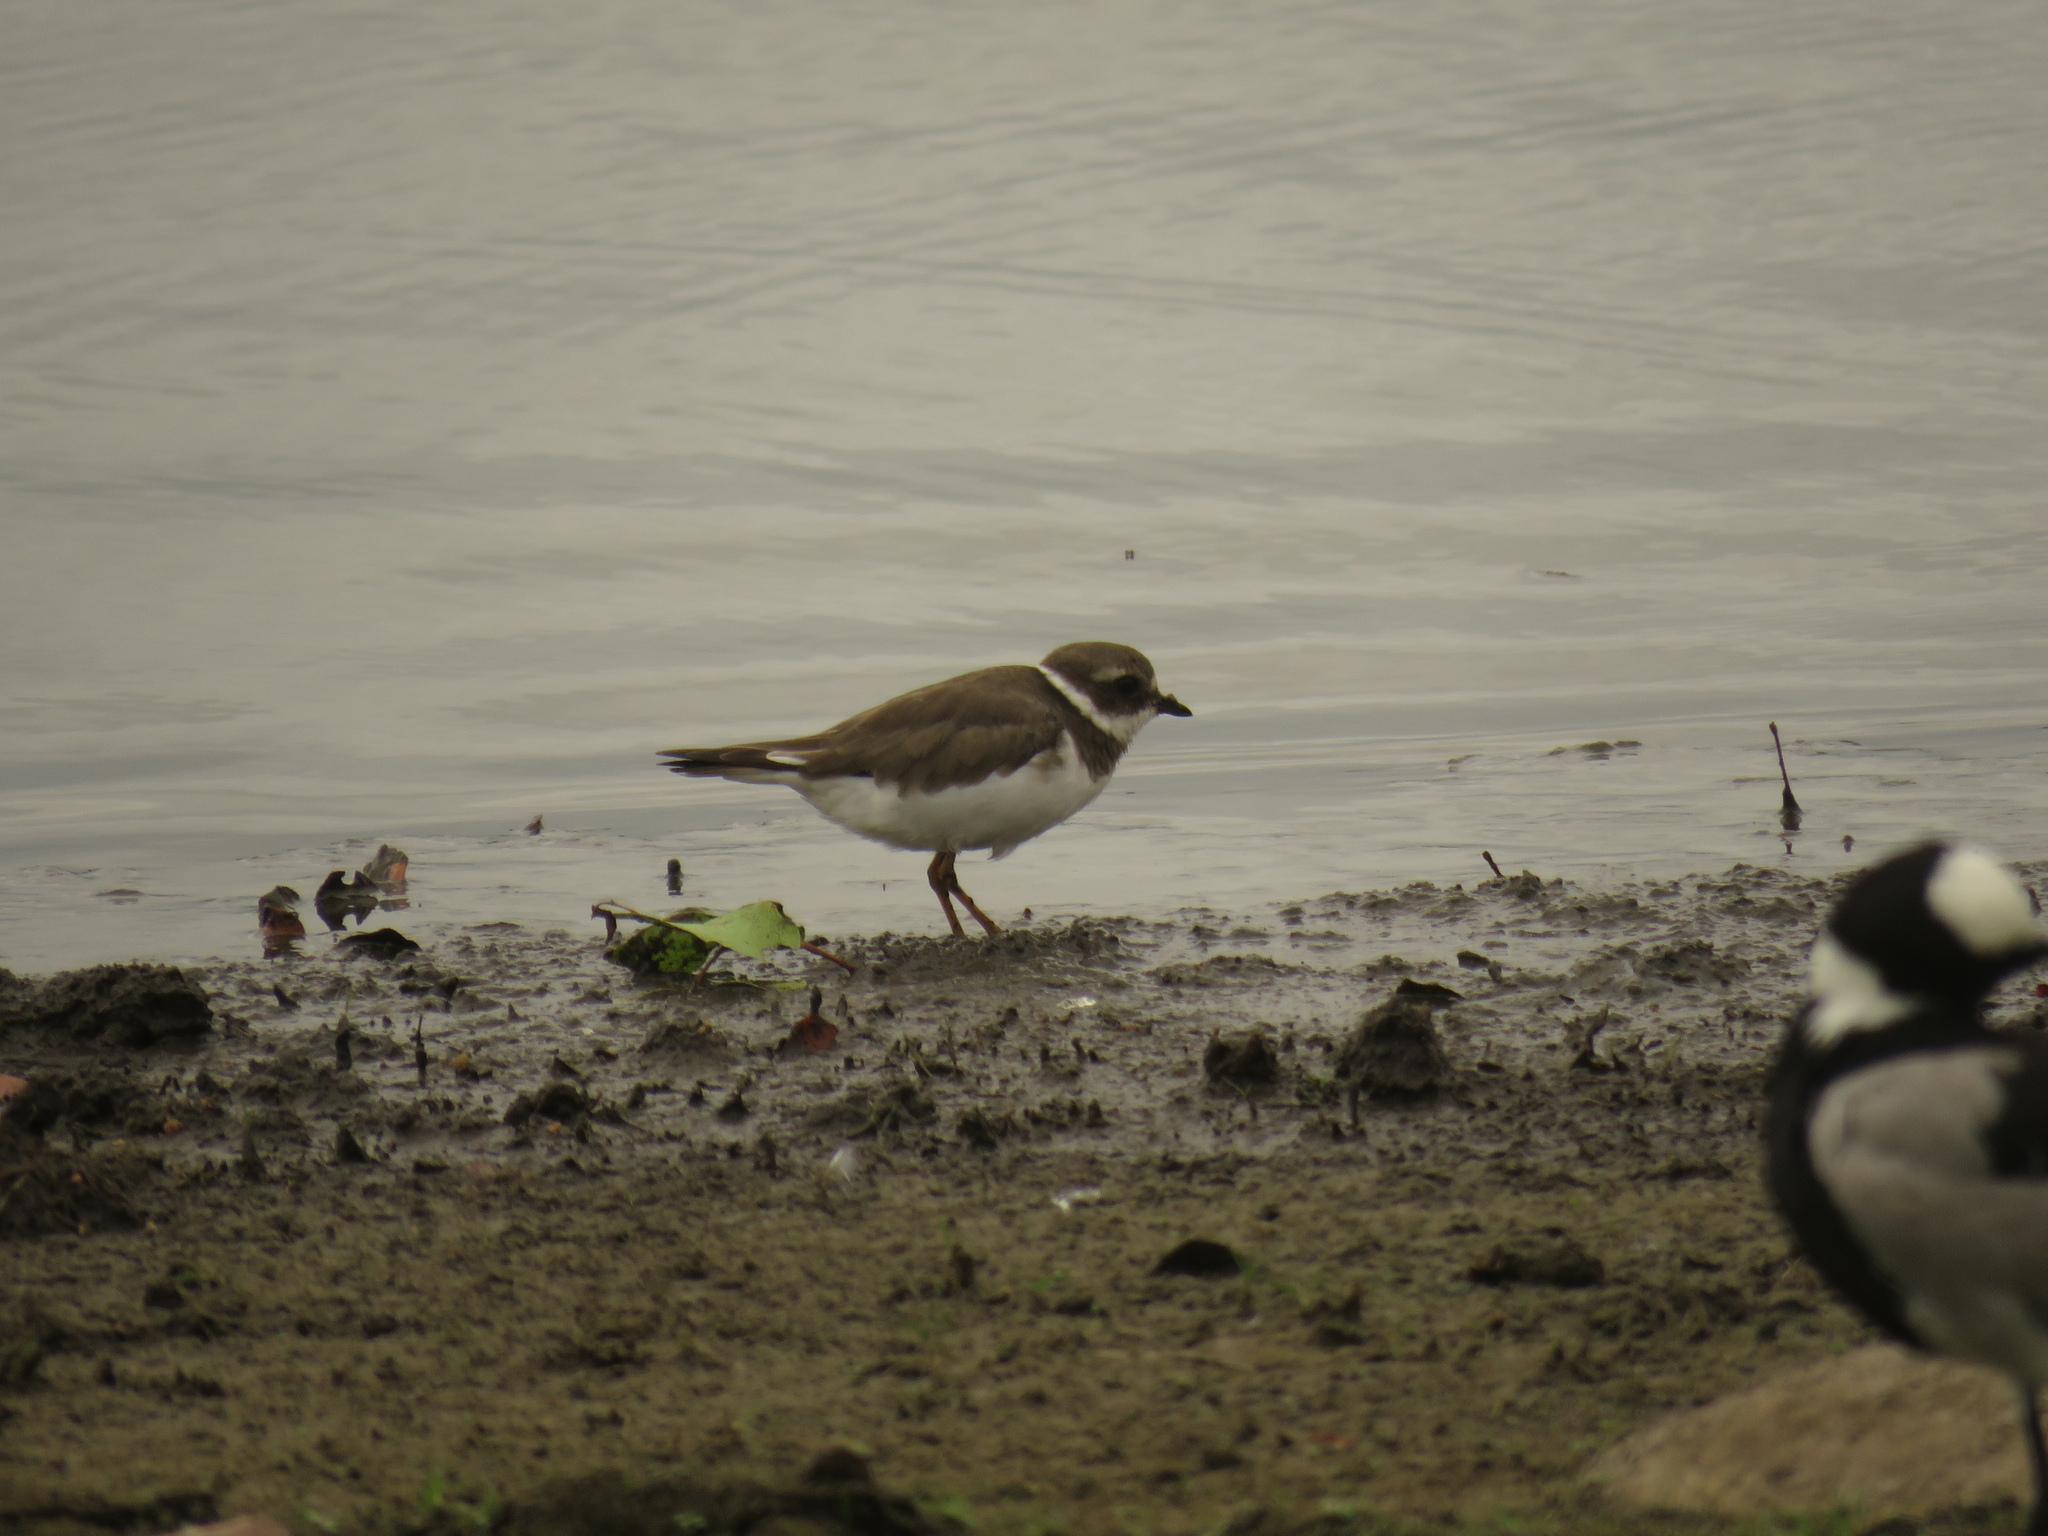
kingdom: Animalia
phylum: Chordata
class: Aves
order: Charadriiformes
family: Charadriidae
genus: Charadrius
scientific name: Charadrius hiaticula
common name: Common ringed plover
